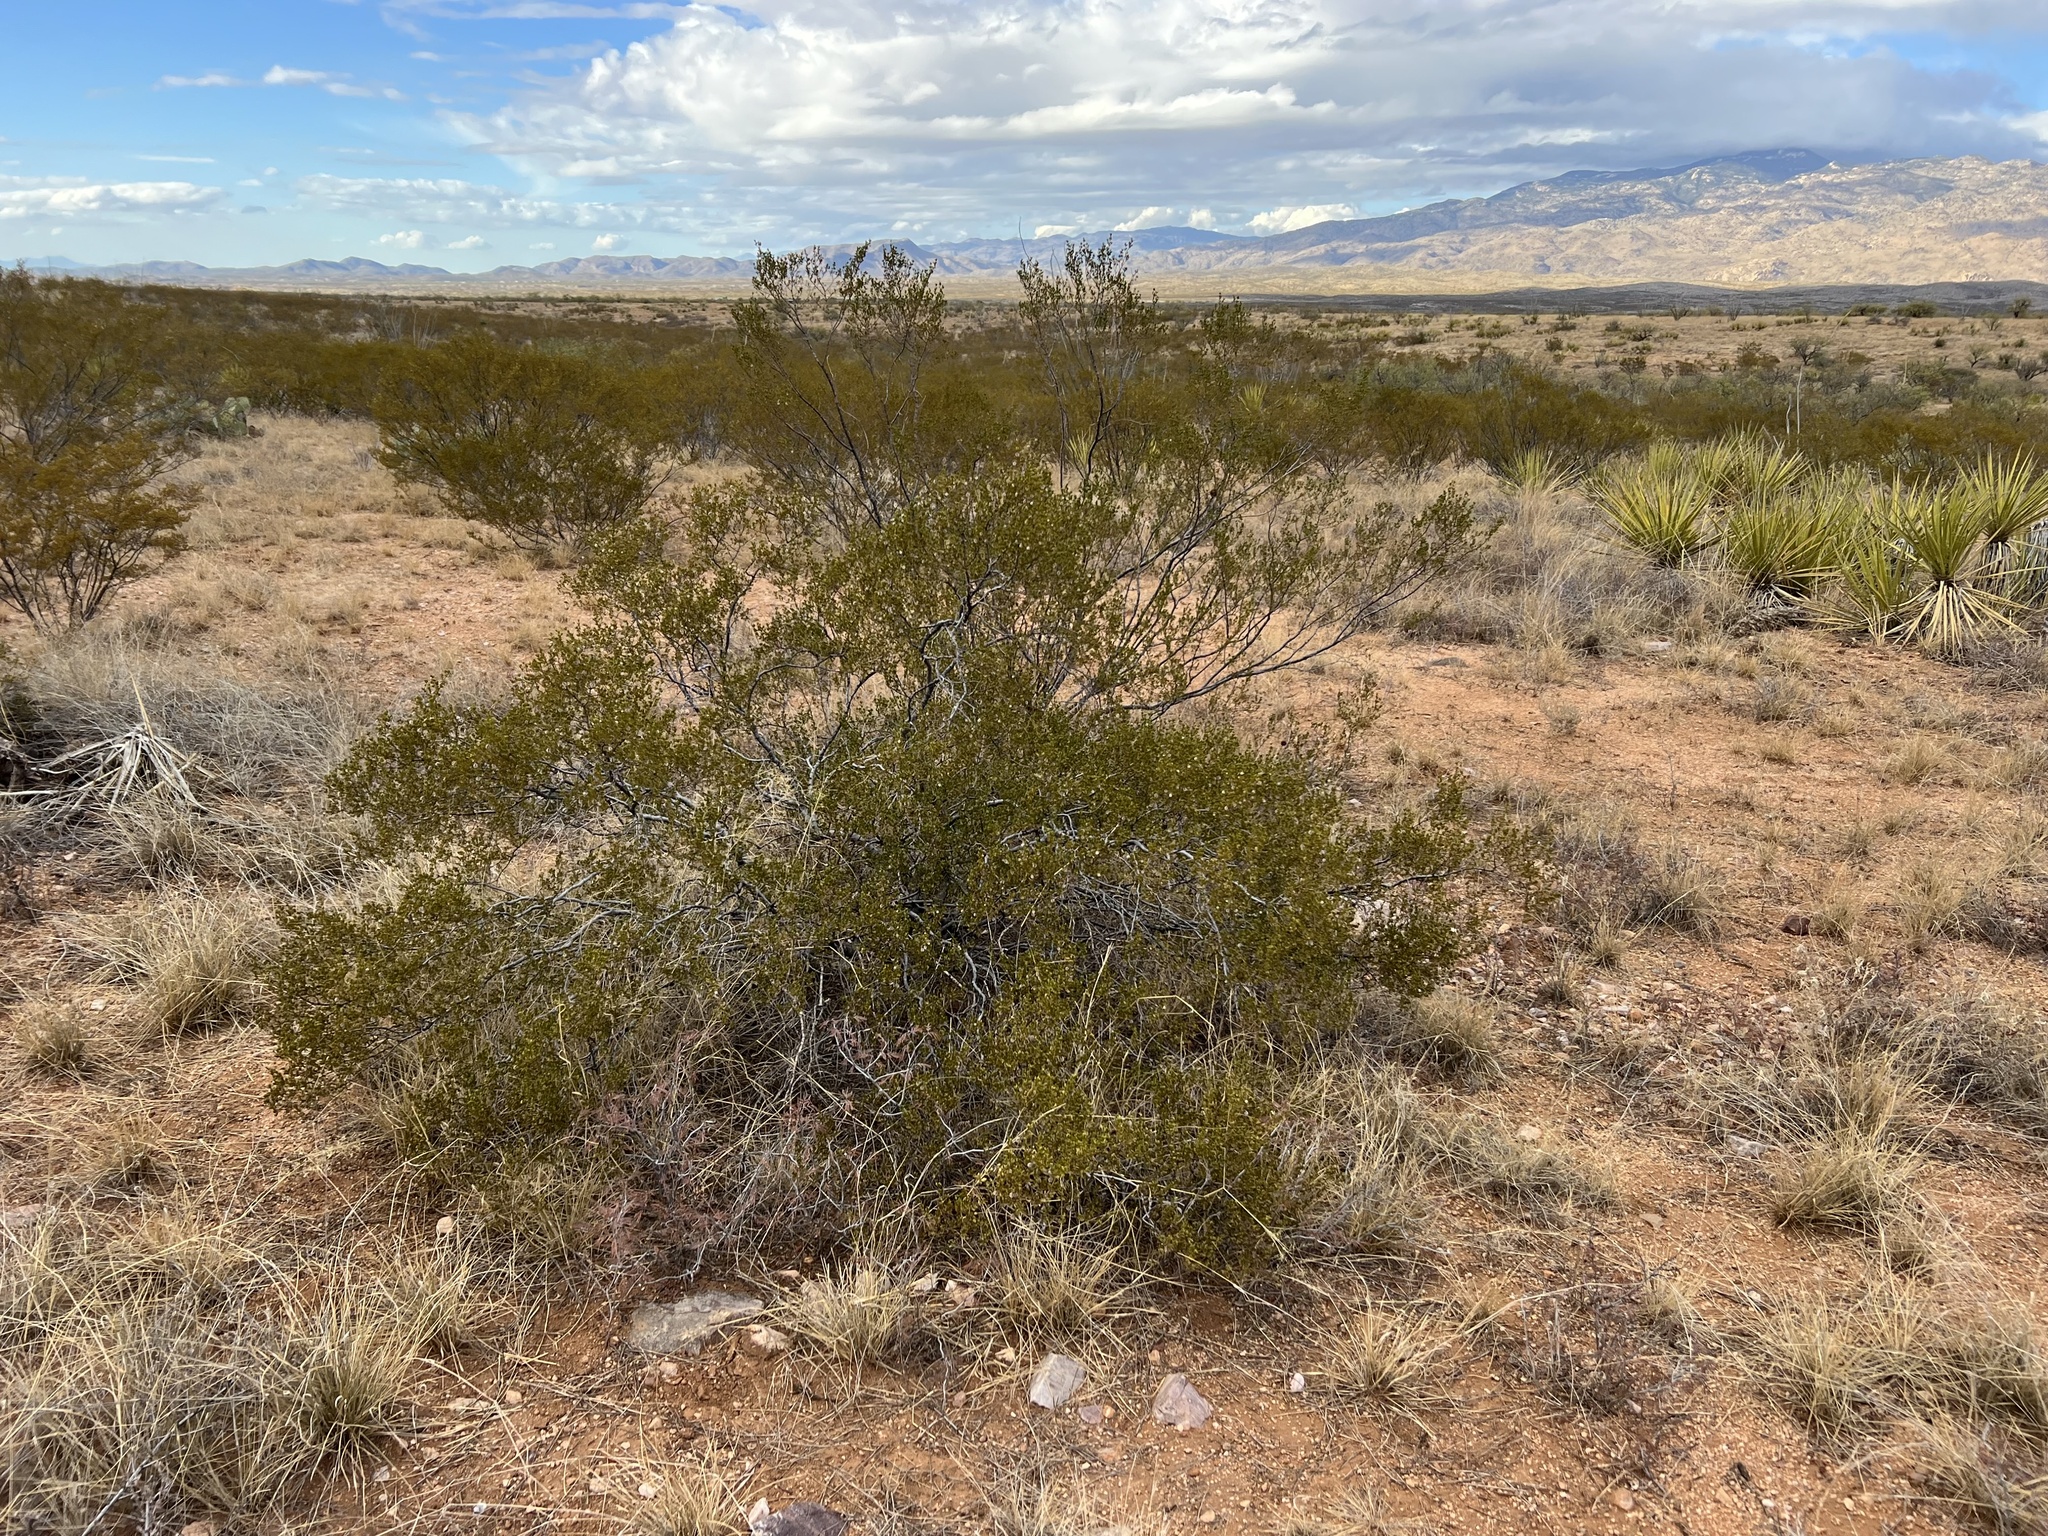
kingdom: Plantae
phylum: Tracheophyta
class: Magnoliopsida
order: Zygophyllales
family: Zygophyllaceae
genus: Larrea
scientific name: Larrea tridentata
